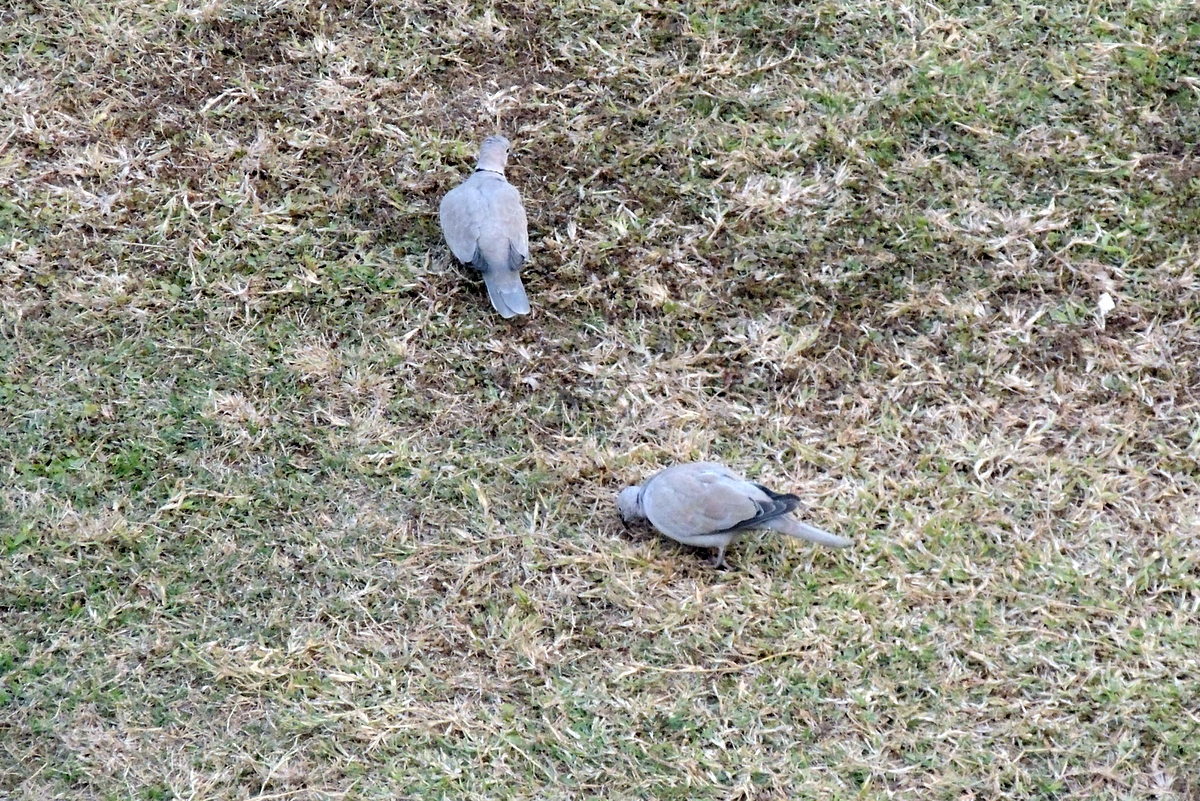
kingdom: Animalia
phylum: Chordata
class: Aves
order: Columbiformes
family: Columbidae
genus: Streptopelia
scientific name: Streptopelia decaocto
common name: Eurasian collared dove
